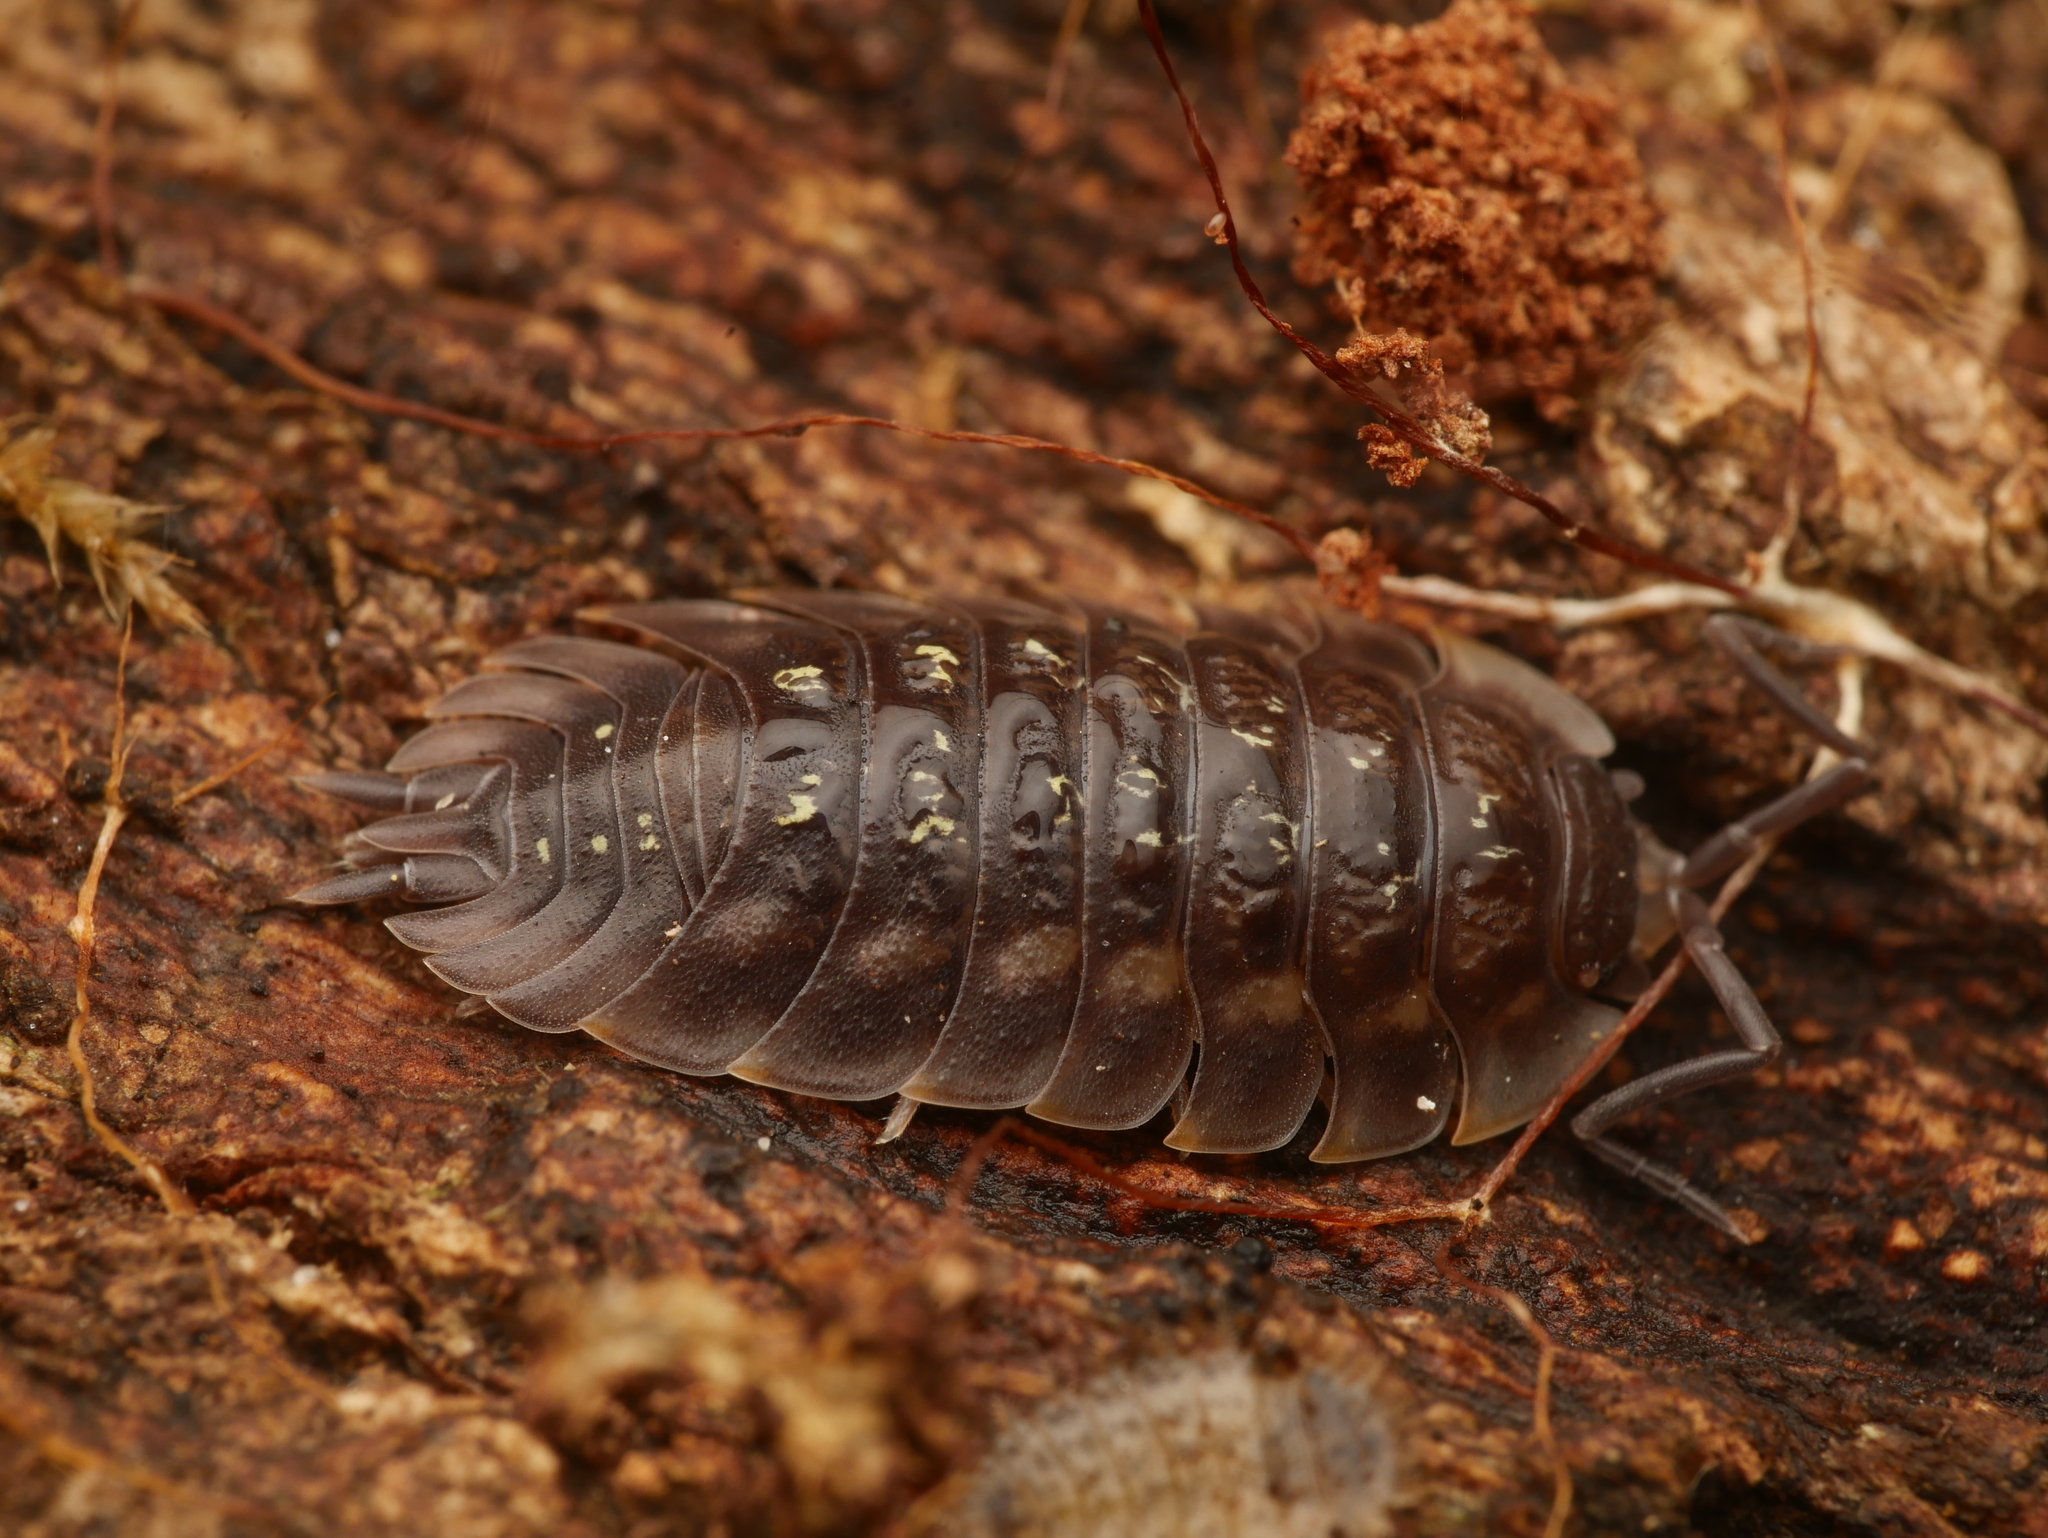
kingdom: Animalia
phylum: Arthropoda
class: Malacostraca
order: Isopoda
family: Oniscidae
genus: Oniscus
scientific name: Oniscus asellus
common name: Common shiny woodlouse
